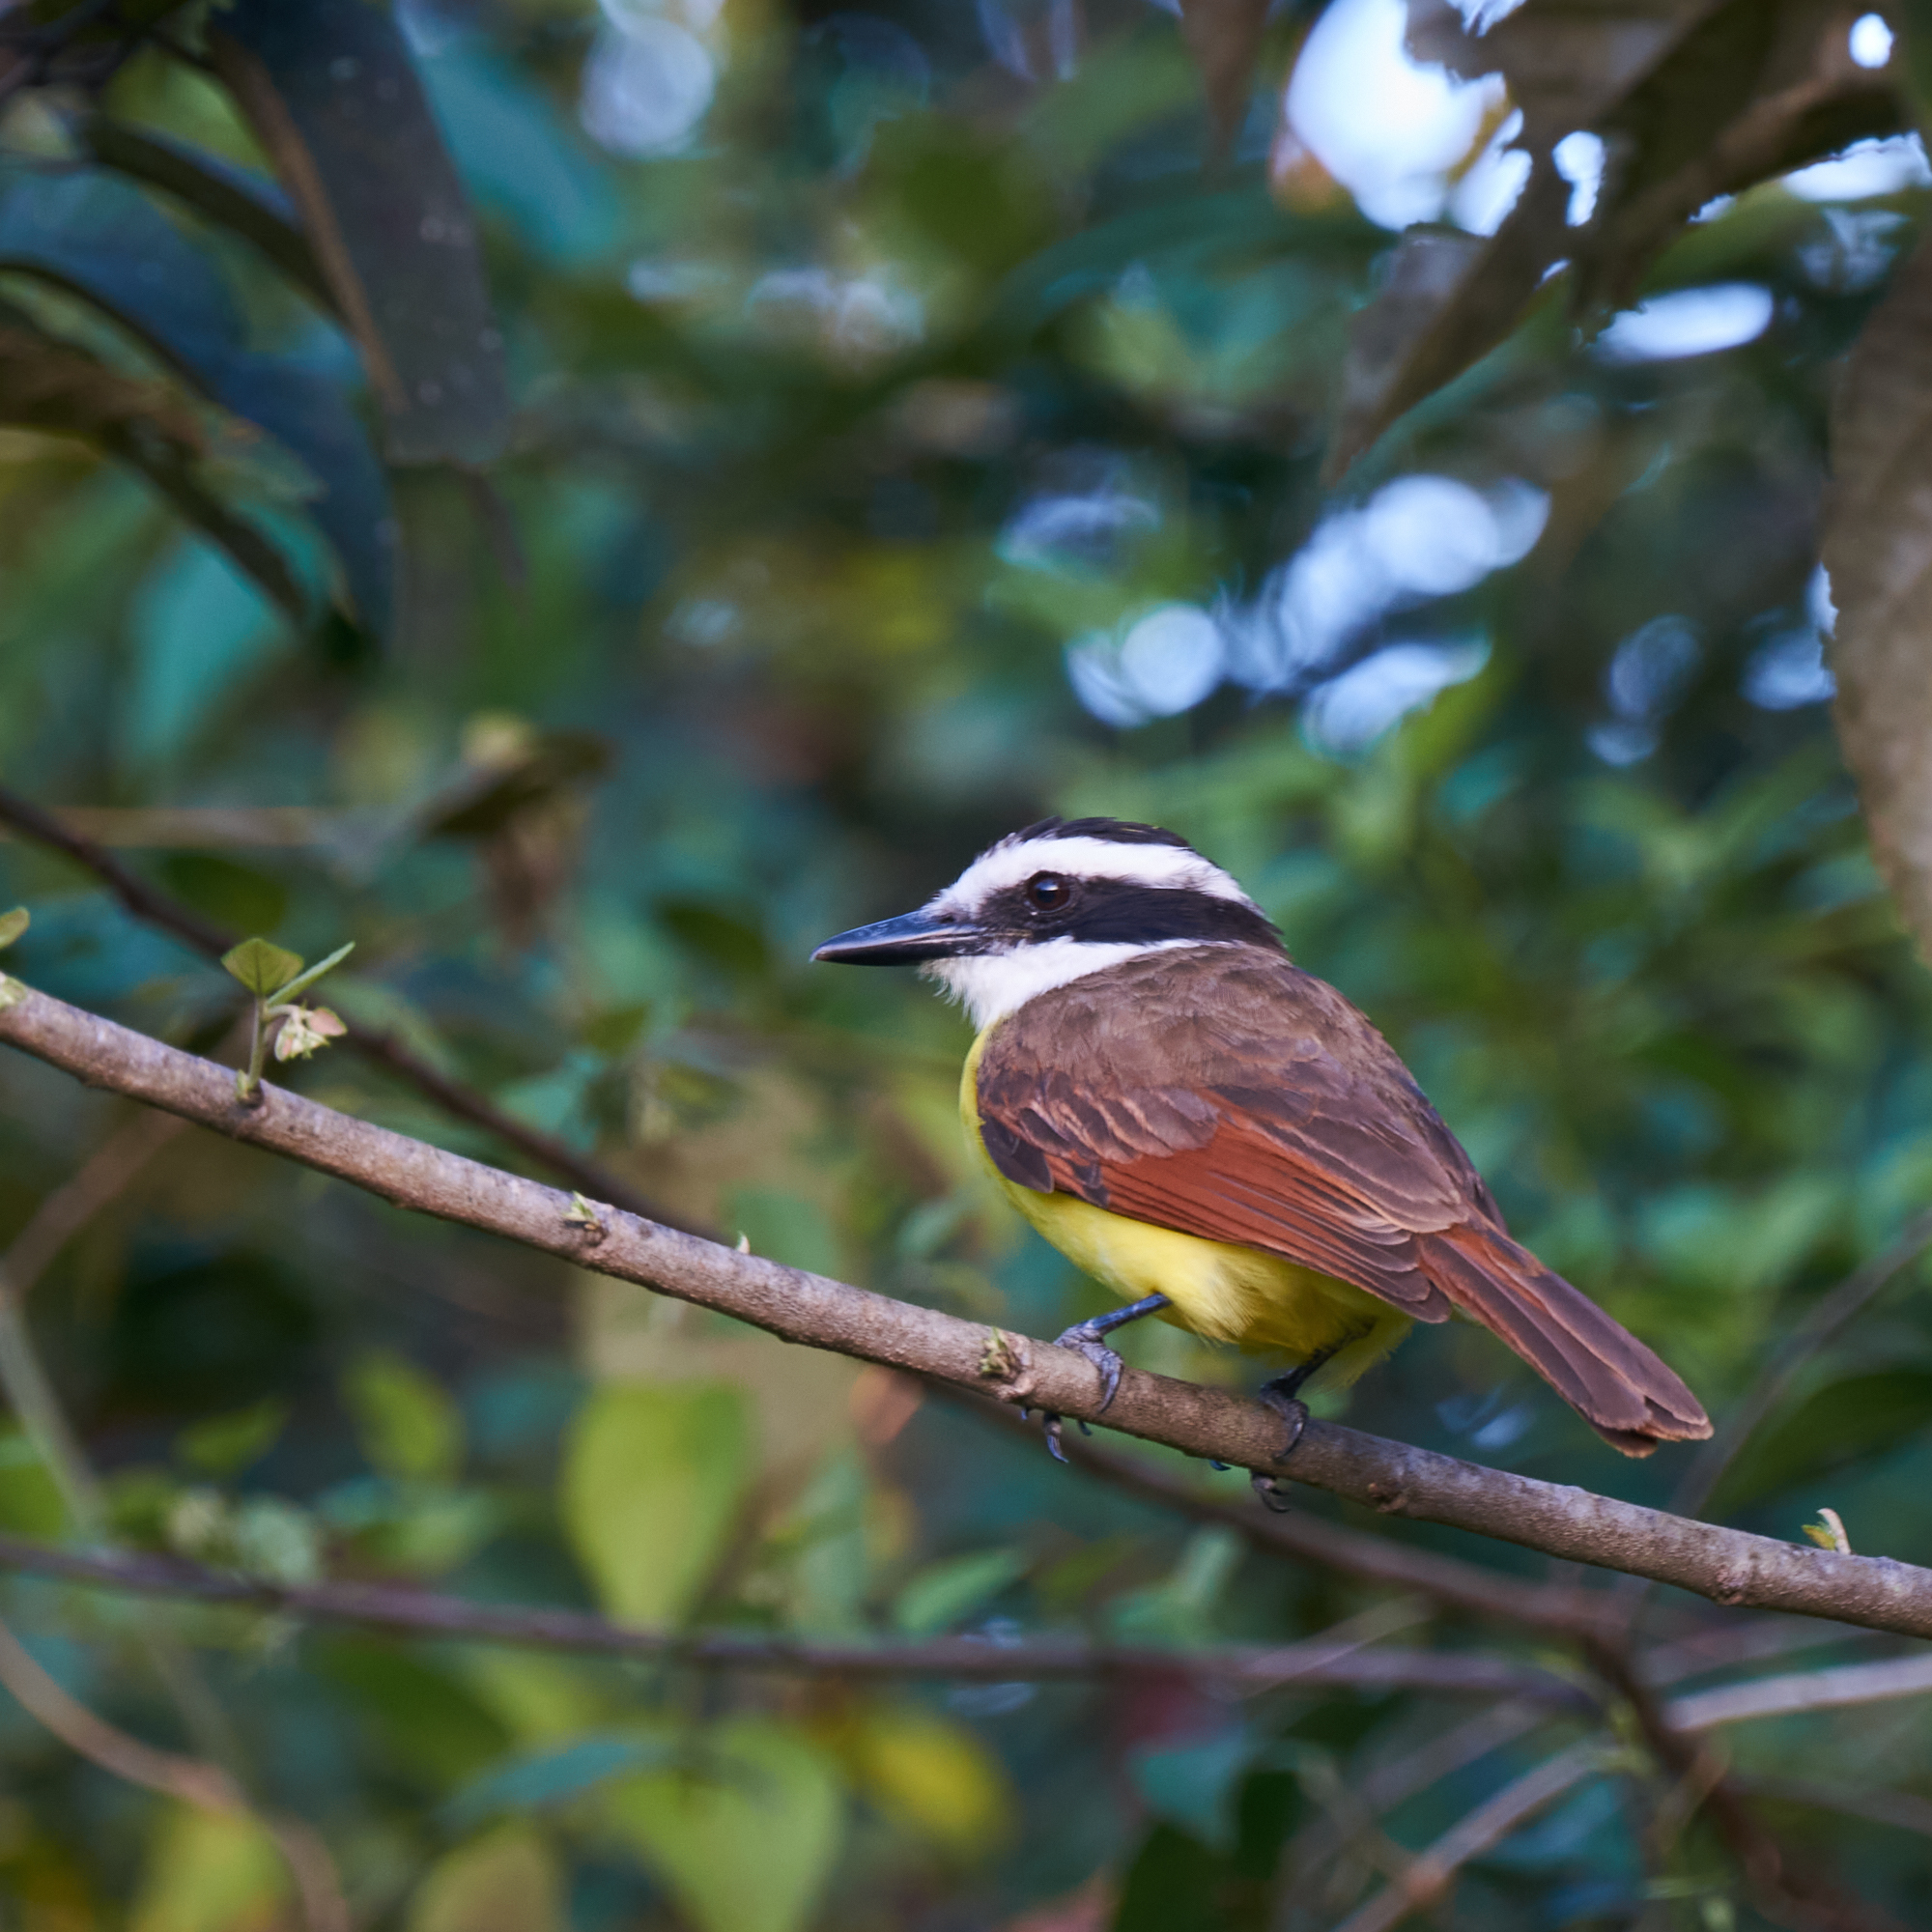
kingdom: Animalia
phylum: Chordata
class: Aves
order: Passeriformes
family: Tyrannidae
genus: Pitangus
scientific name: Pitangus sulphuratus
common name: Great kiskadee
